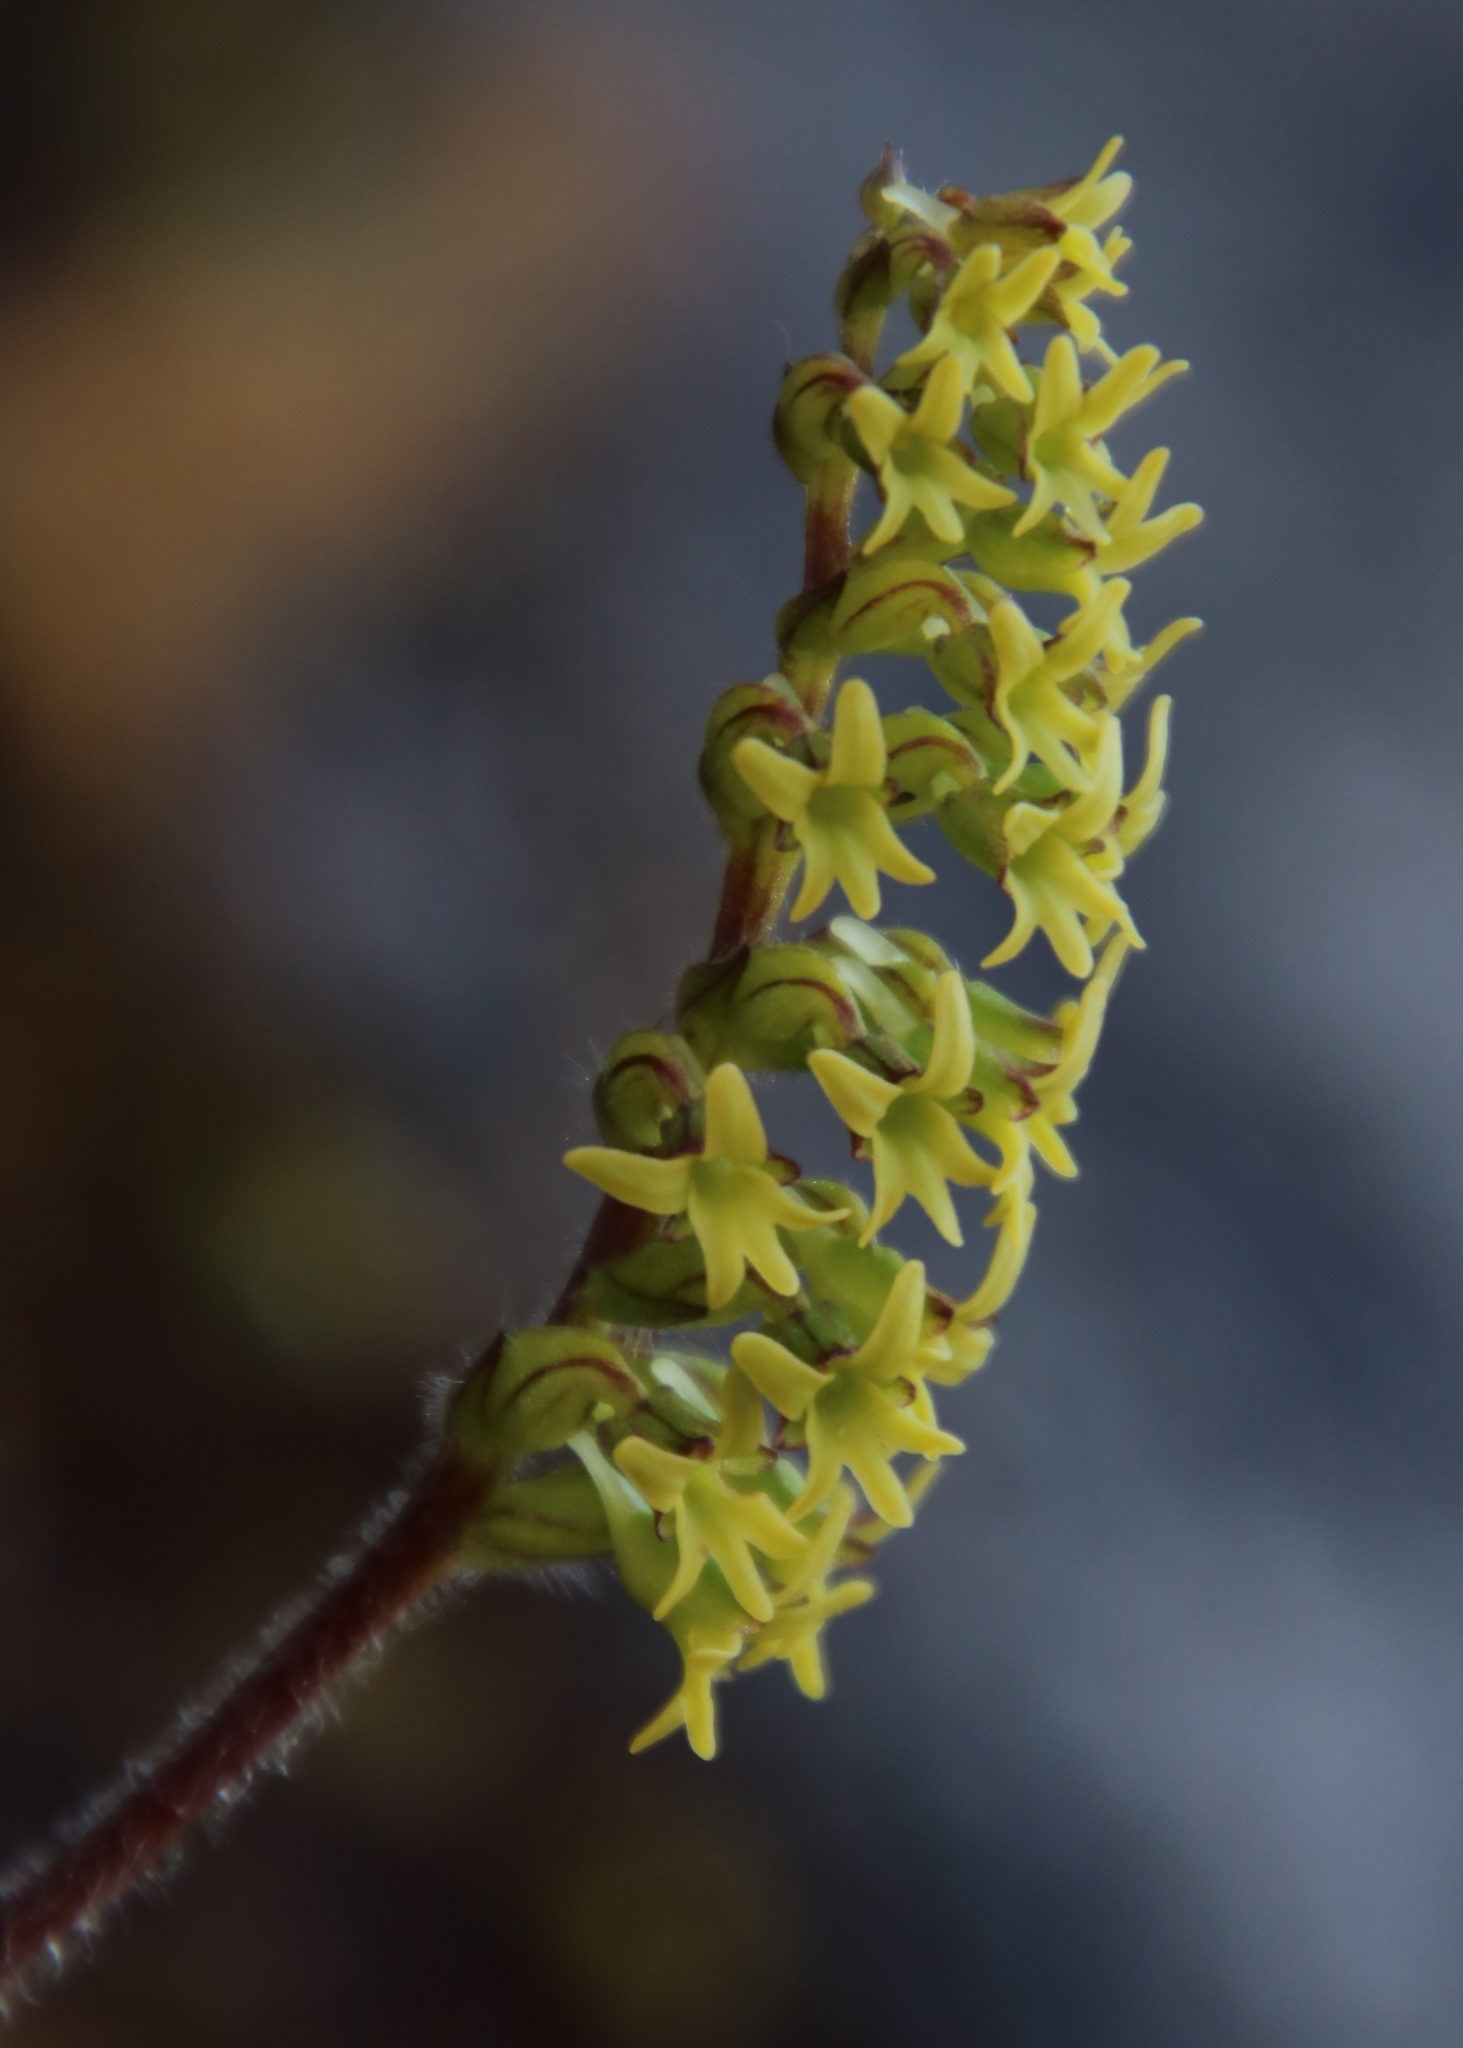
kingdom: Plantae
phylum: Tracheophyta
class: Liliopsida
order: Asparagales
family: Orchidaceae
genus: Holothrix
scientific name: Holothrix condensata
